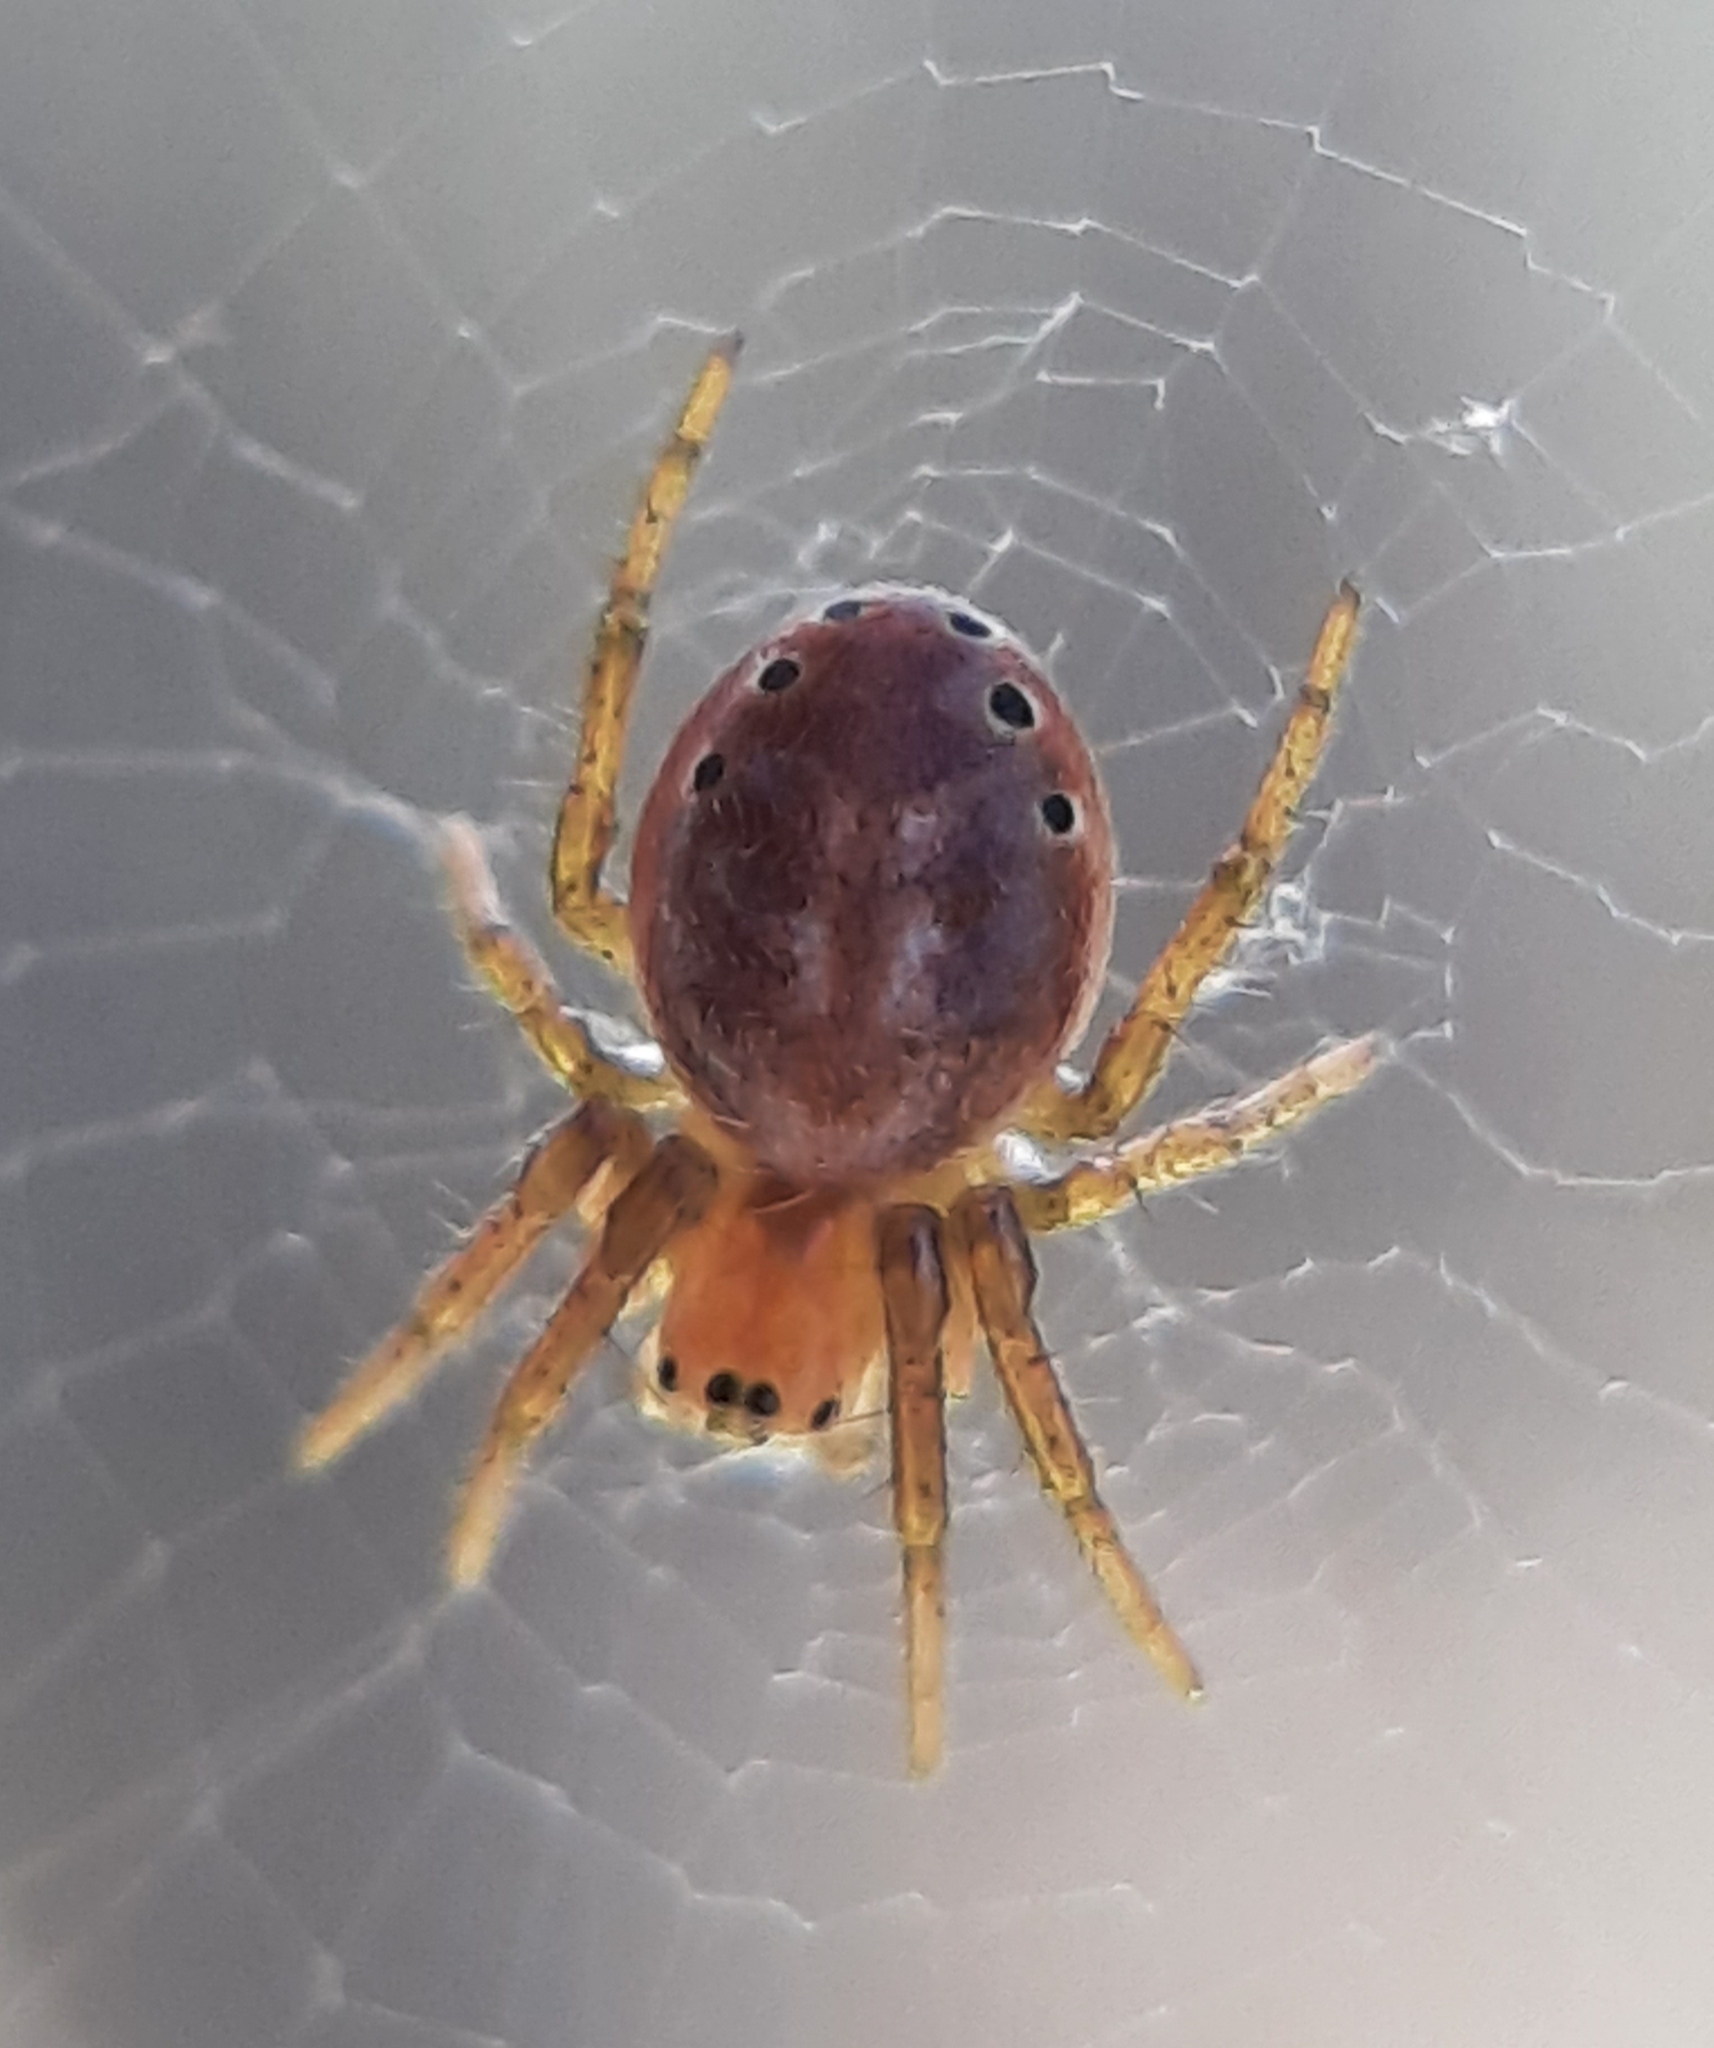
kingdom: Animalia
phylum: Arthropoda
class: Arachnida
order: Araneae
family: Araneidae
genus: Araniella
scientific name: Araniella displicata
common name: Sixspotted orb weaver
